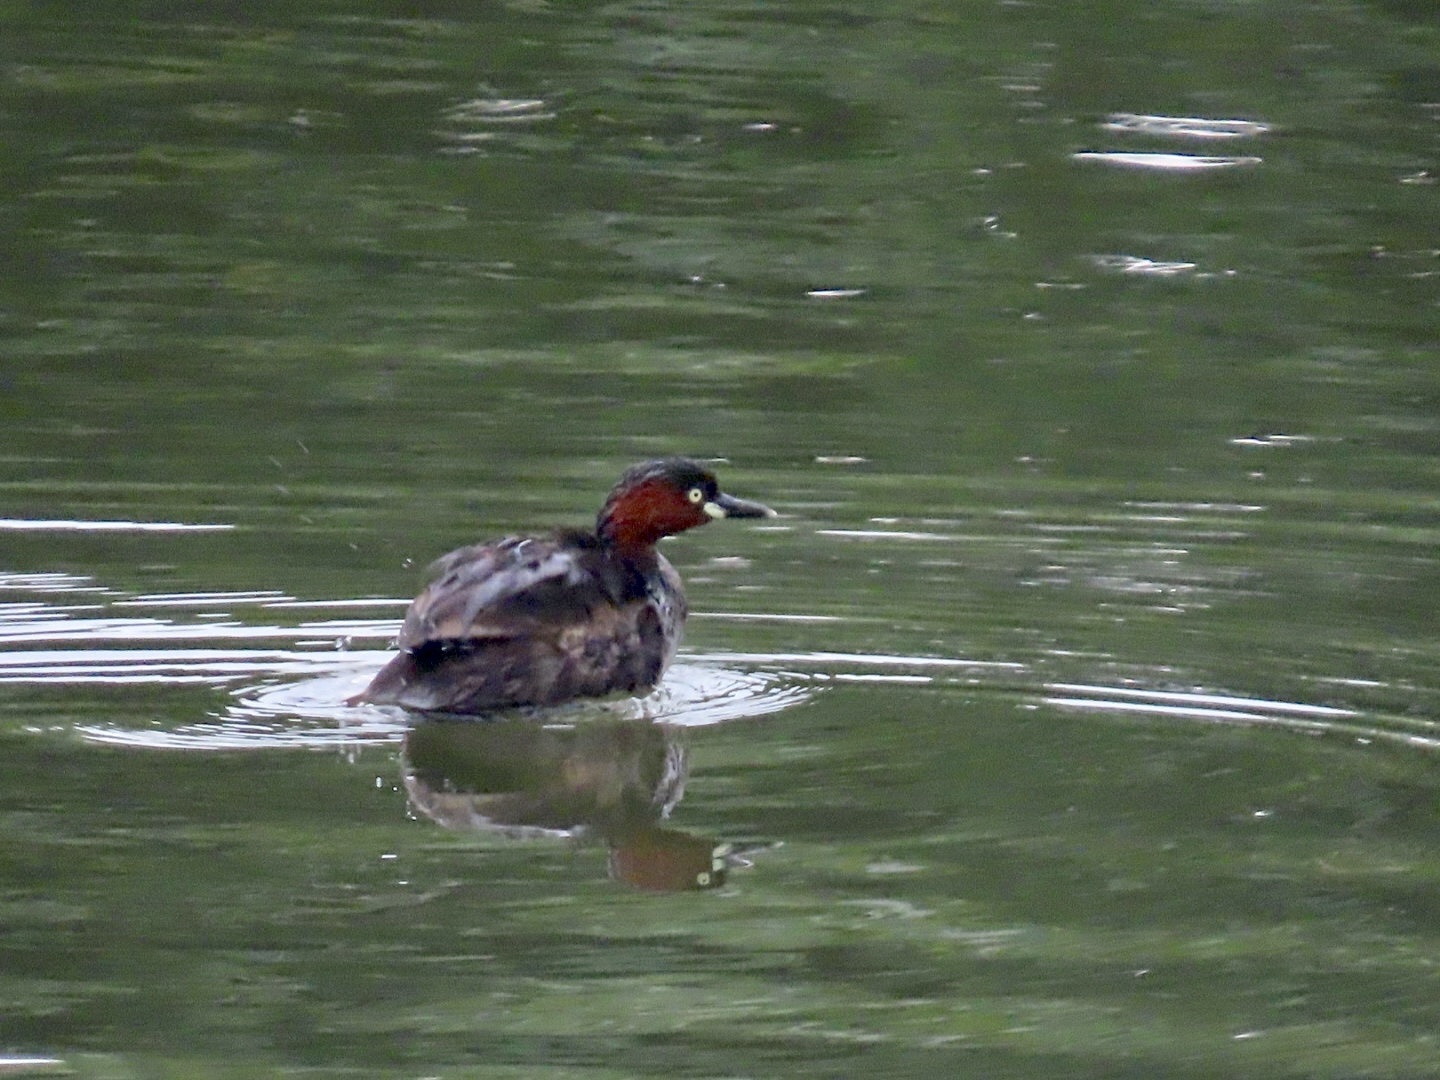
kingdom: Animalia
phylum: Chordata
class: Aves
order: Podicipediformes
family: Podicipedidae
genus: Tachybaptus
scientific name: Tachybaptus ruficollis
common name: Little grebe
